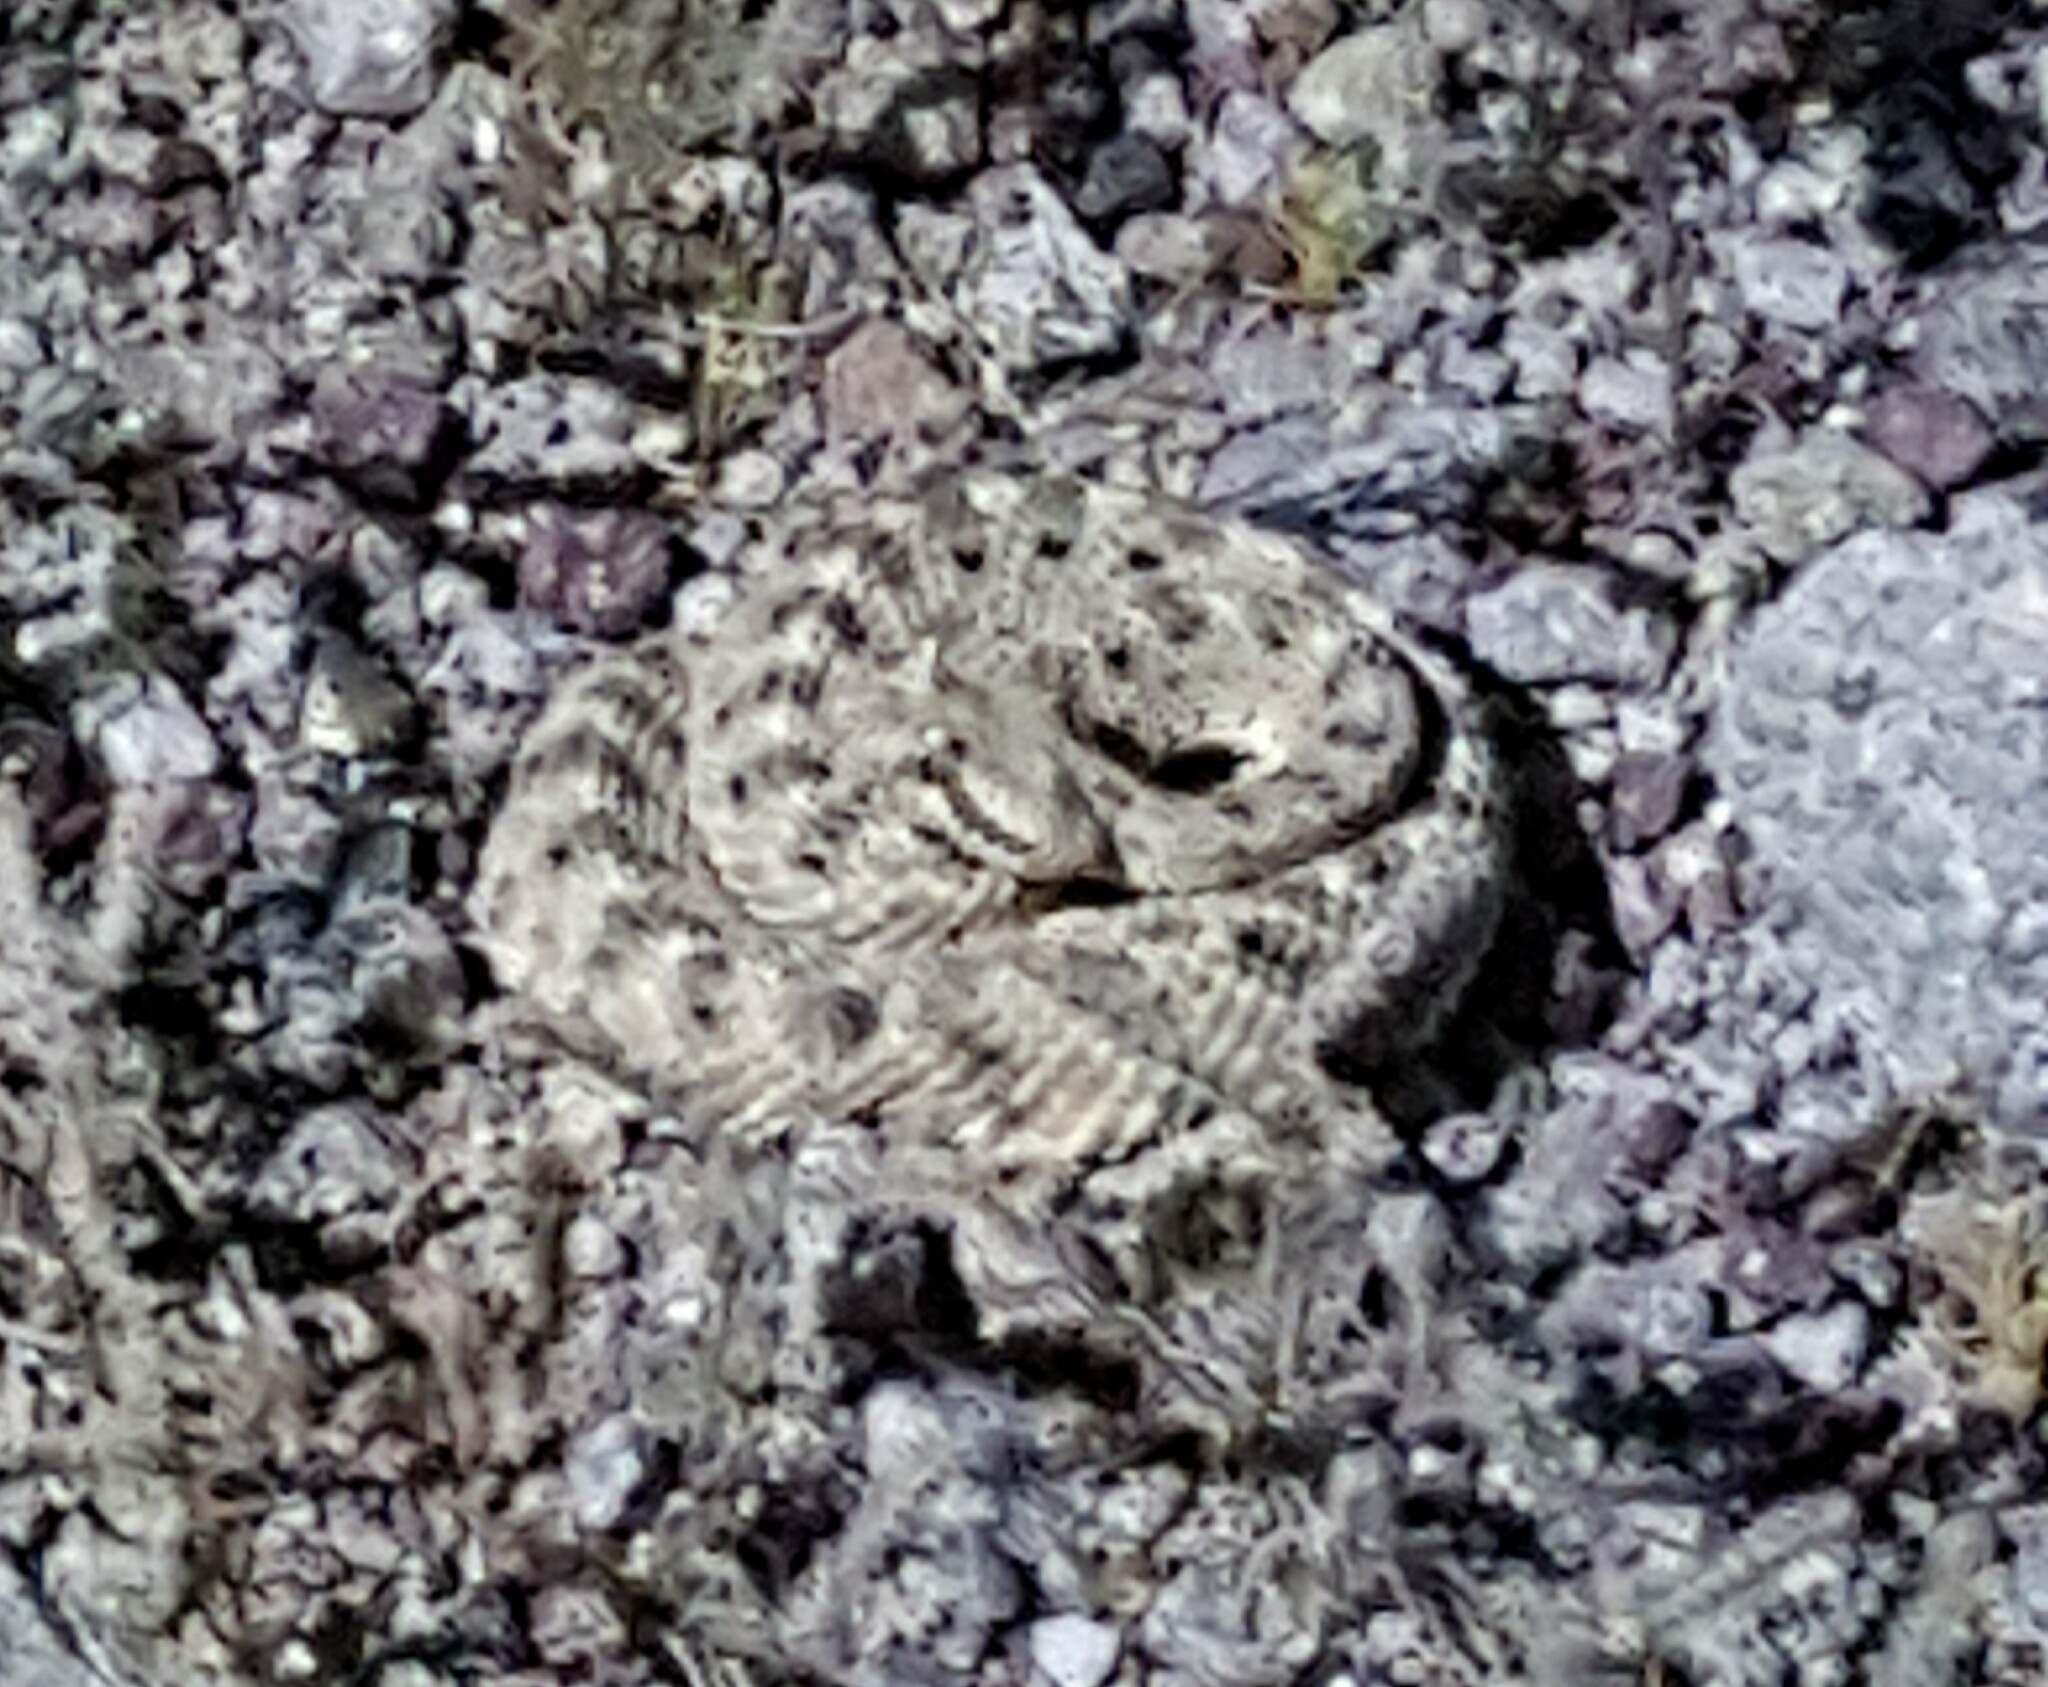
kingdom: Animalia
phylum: Chordata
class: Squamata
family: Viperidae
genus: Crotalus
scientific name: Crotalus cerastes
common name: Sidewinder
